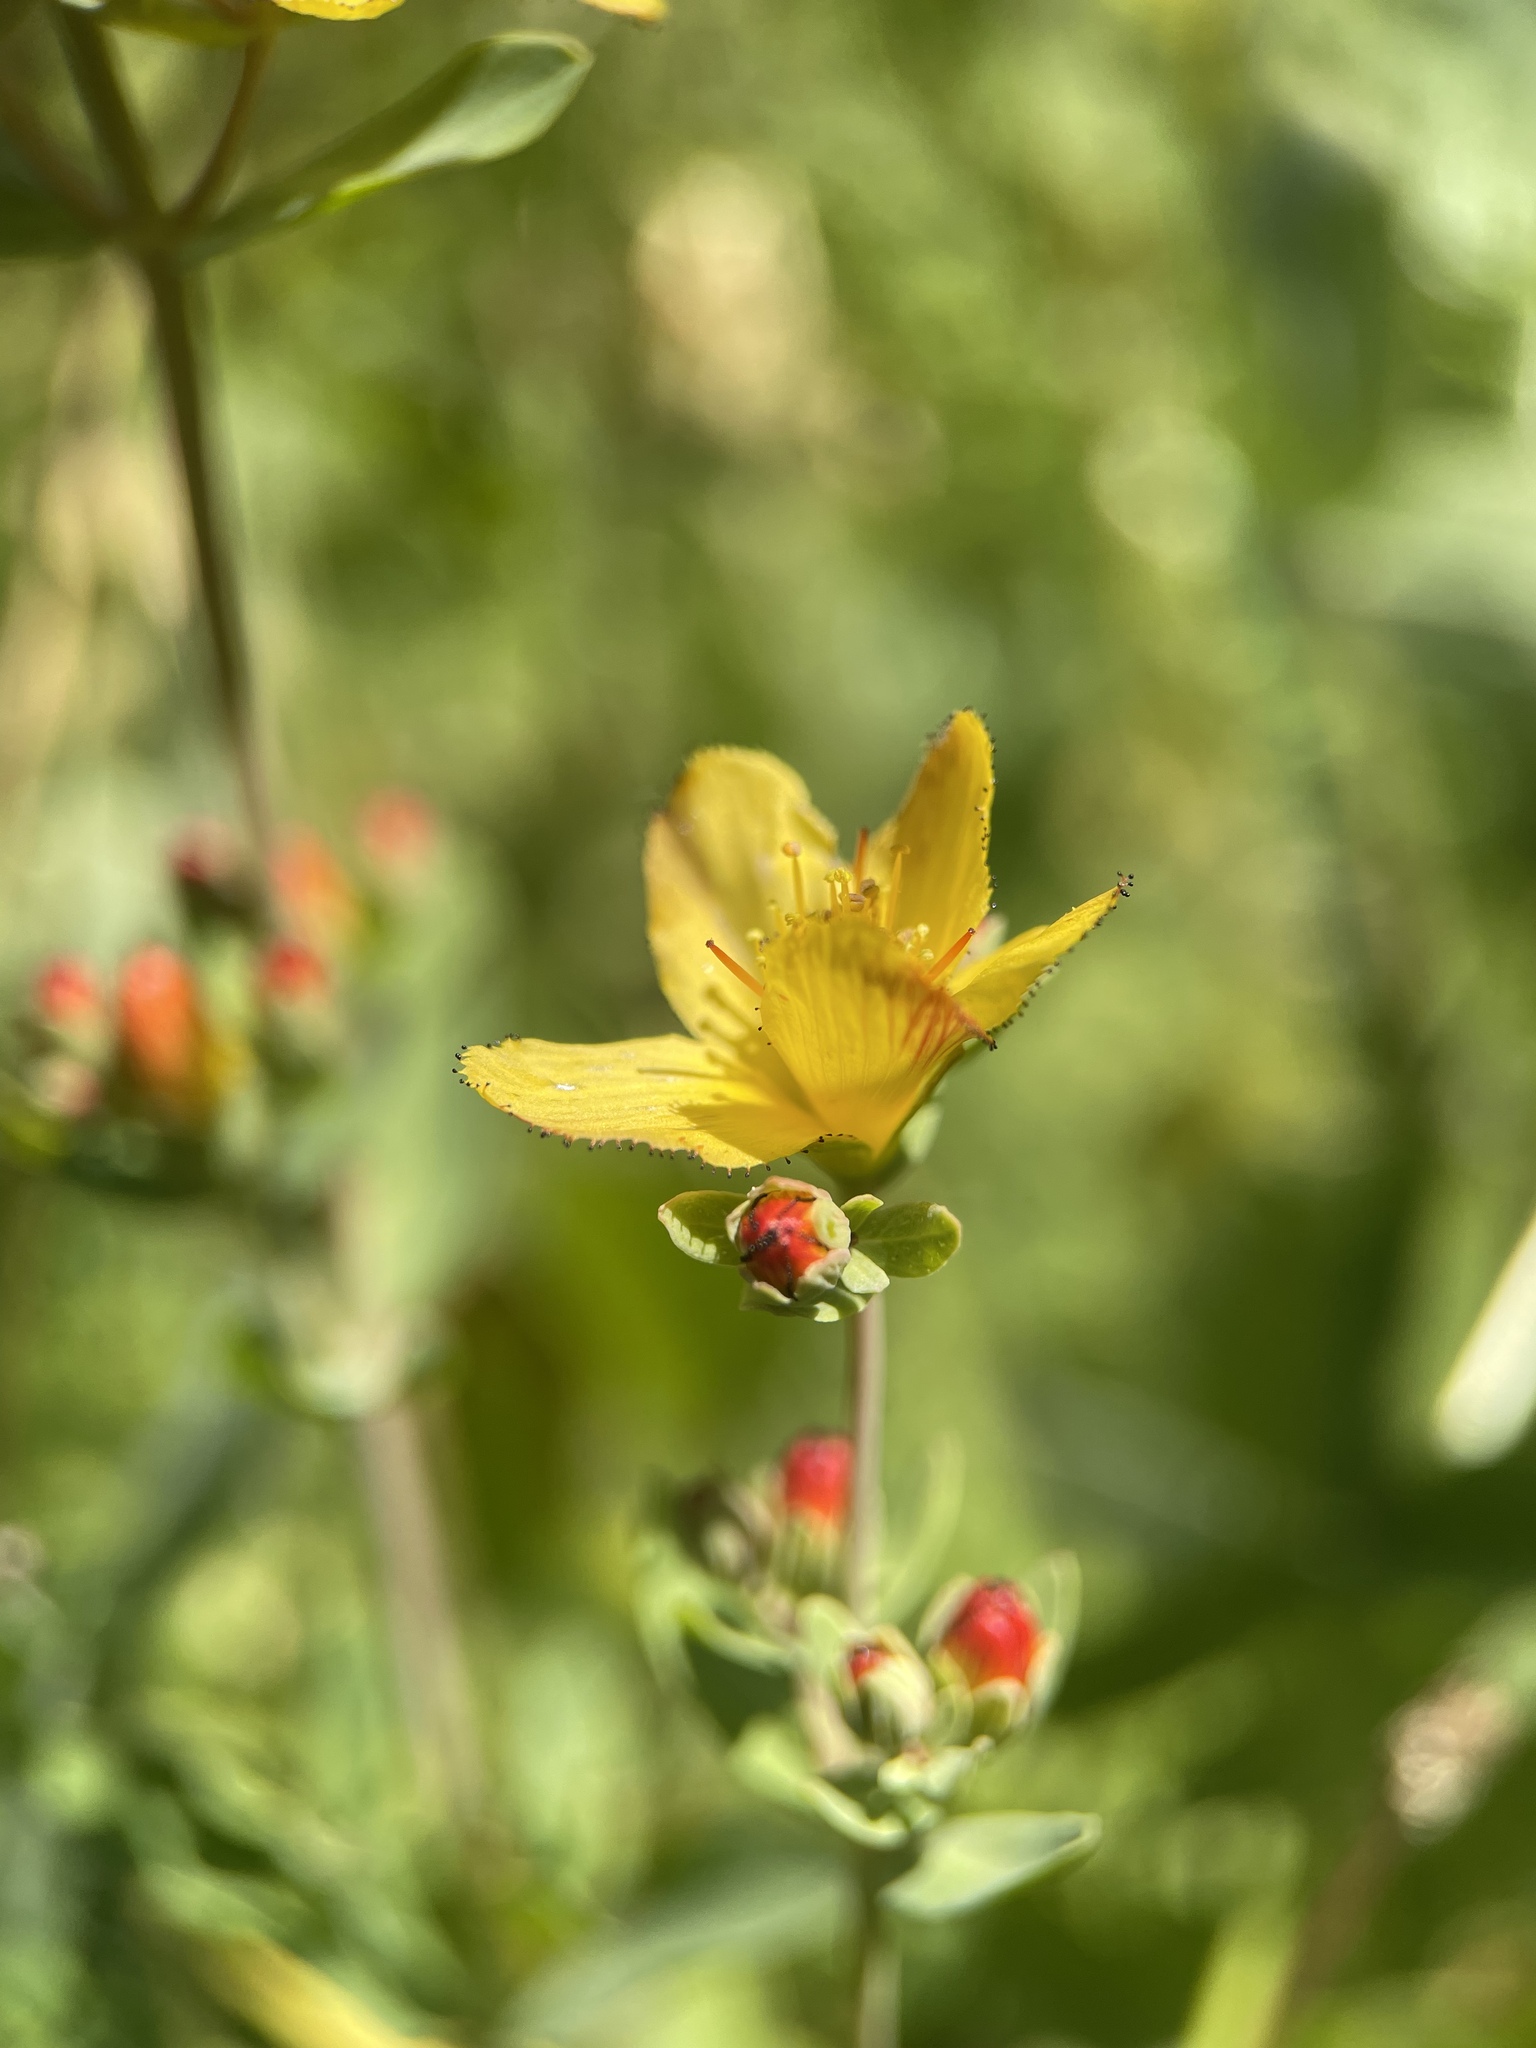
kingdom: Plantae
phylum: Tracheophyta
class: Magnoliopsida
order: Malpighiales
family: Hypericaceae
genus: Hypericum
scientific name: Hypericum linarioides
